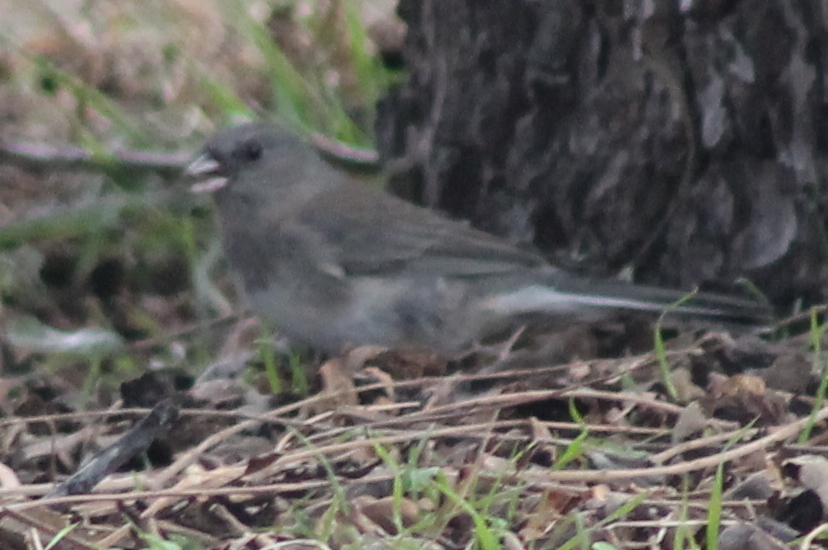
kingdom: Animalia
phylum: Chordata
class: Aves
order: Passeriformes
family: Passerellidae
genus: Junco
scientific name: Junco hyemalis
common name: Dark-eyed junco
